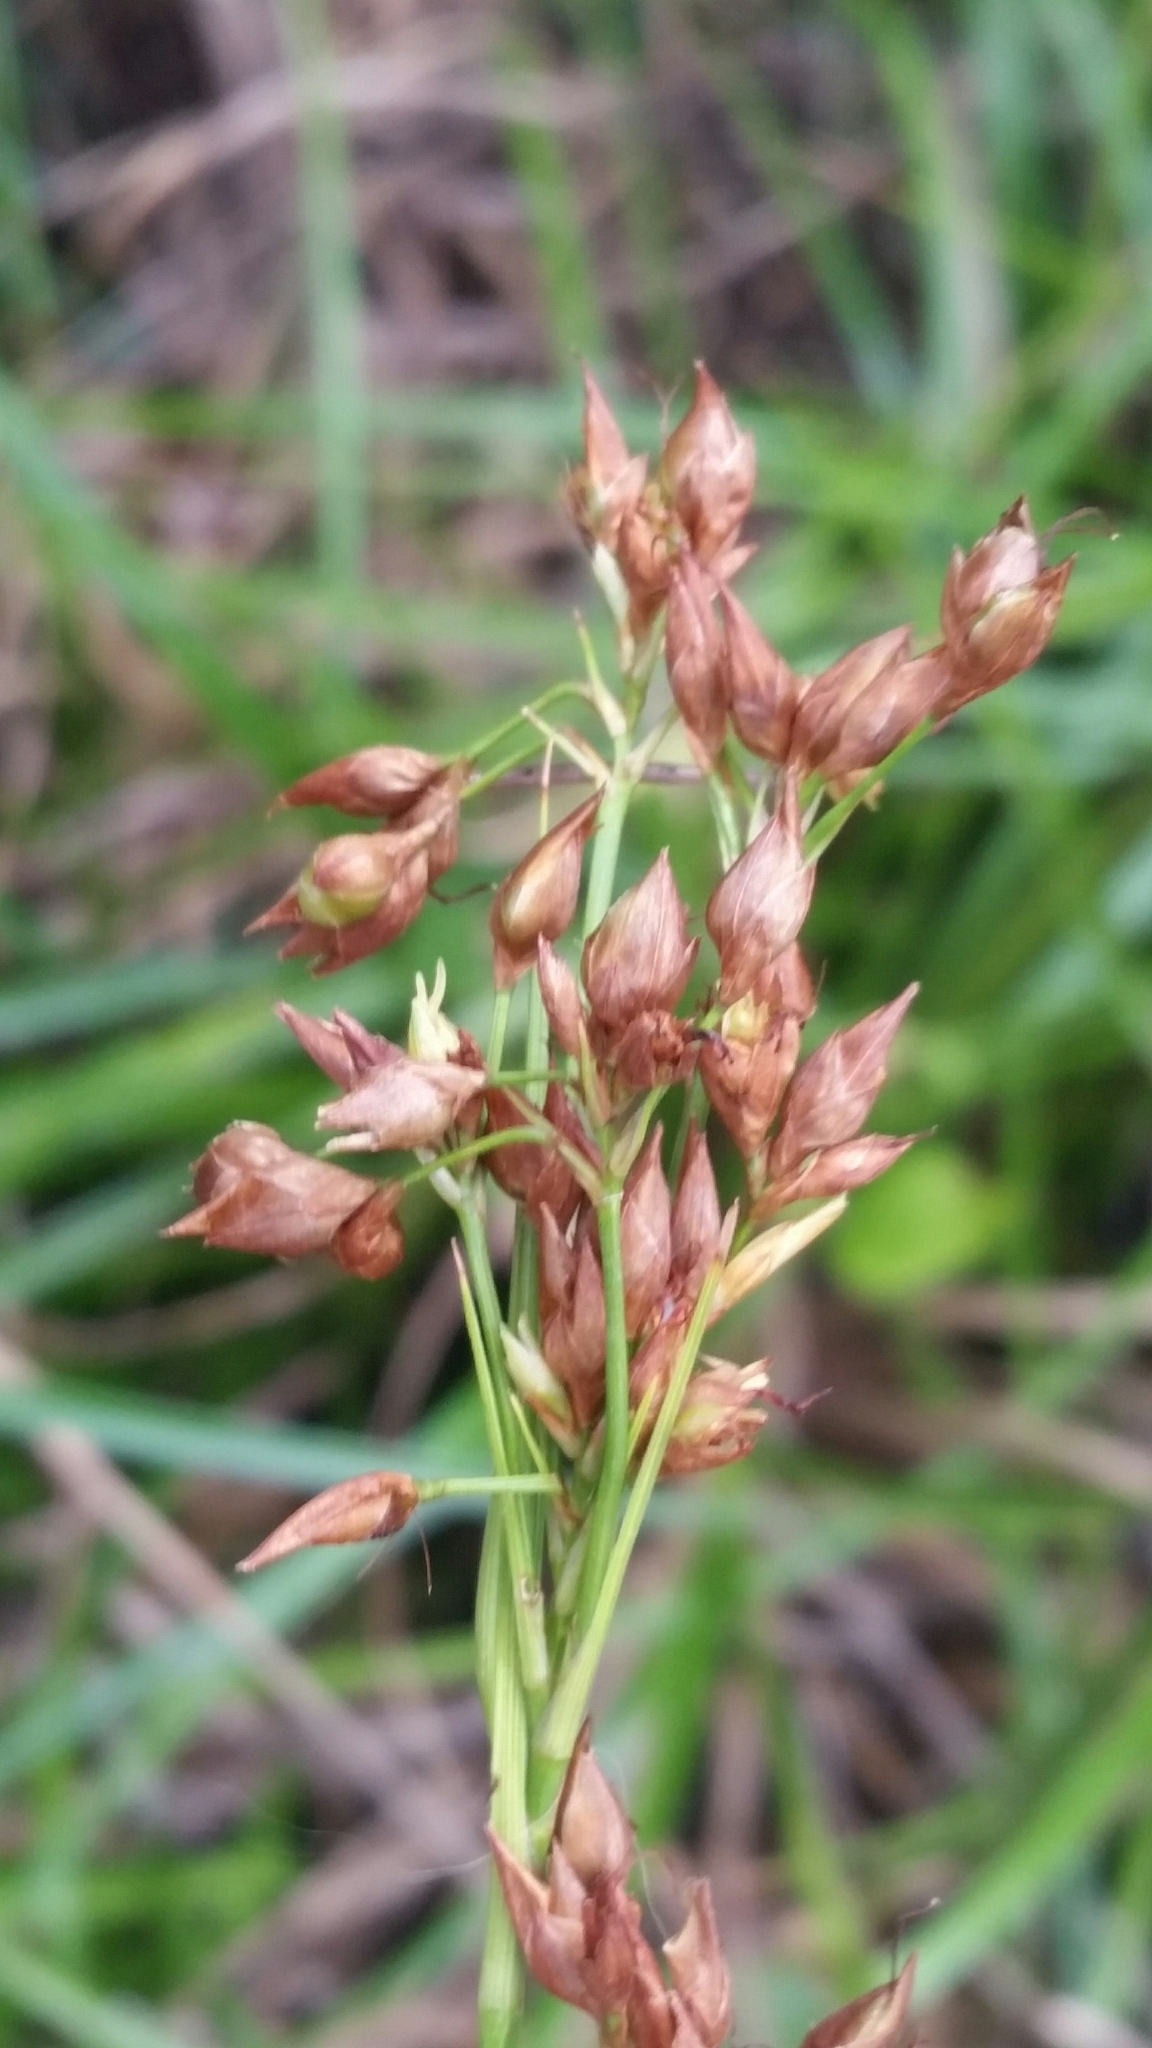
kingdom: Plantae
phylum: Tracheophyta
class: Liliopsida
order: Poales
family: Cyperaceae
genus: Rhynchospora
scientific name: Rhynchospora megalocarpa
